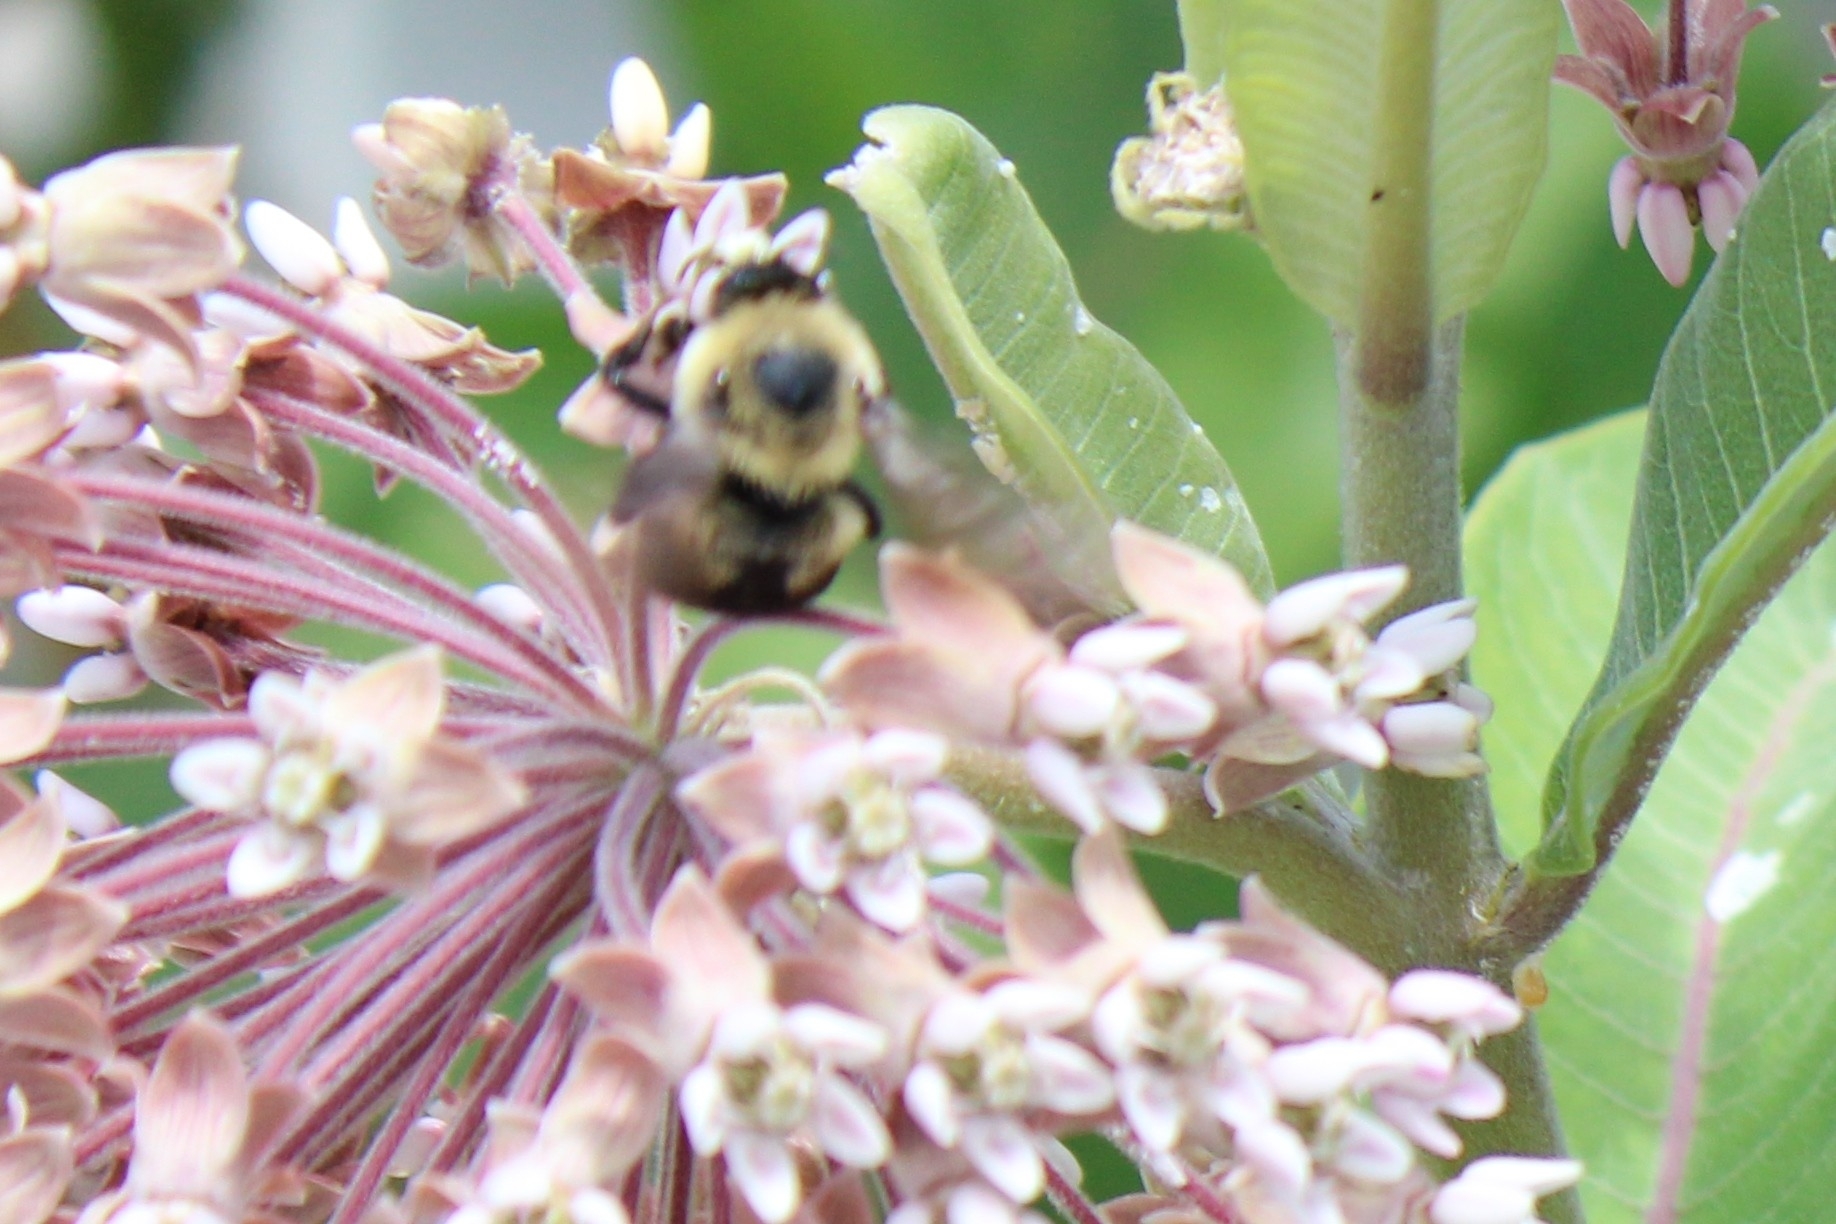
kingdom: Animalia
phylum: Arthropoda
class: Insecta
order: Hymenoptera
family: Apidae
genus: Bombus
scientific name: Bombus griseocollis
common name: Brown-belted bumble bee
